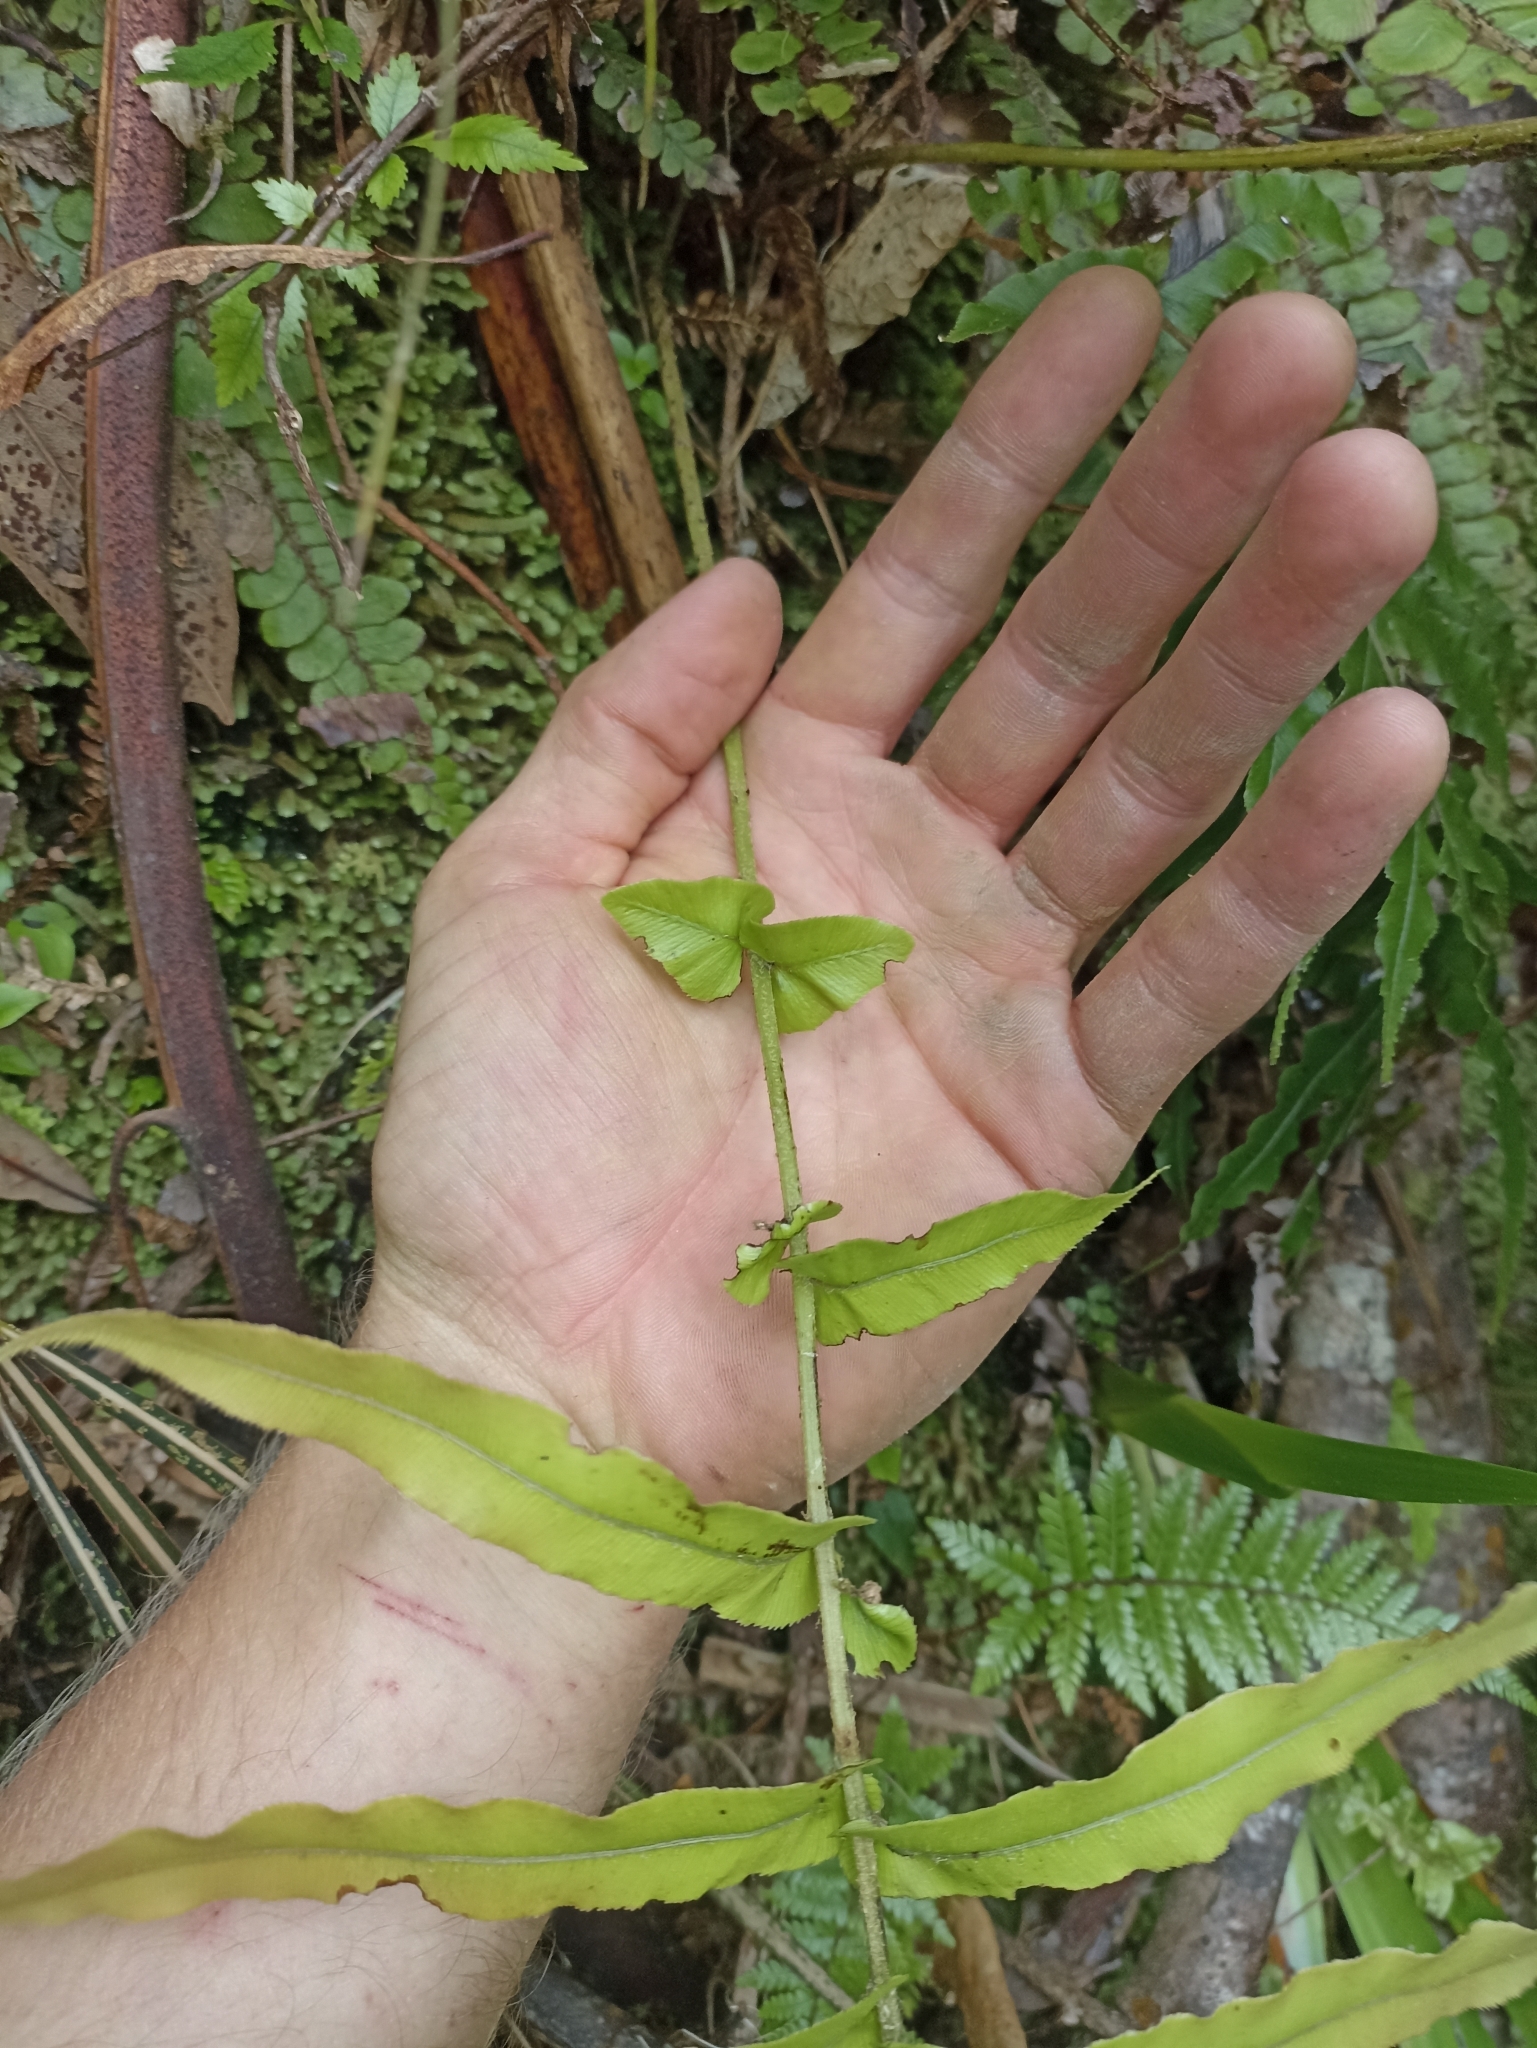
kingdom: Plantae
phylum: Tracheophyta
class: Polypodiopsida
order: Polypodiales
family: Blechnaceae
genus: Parablechnum
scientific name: Parablechnum novae-zelandiae
